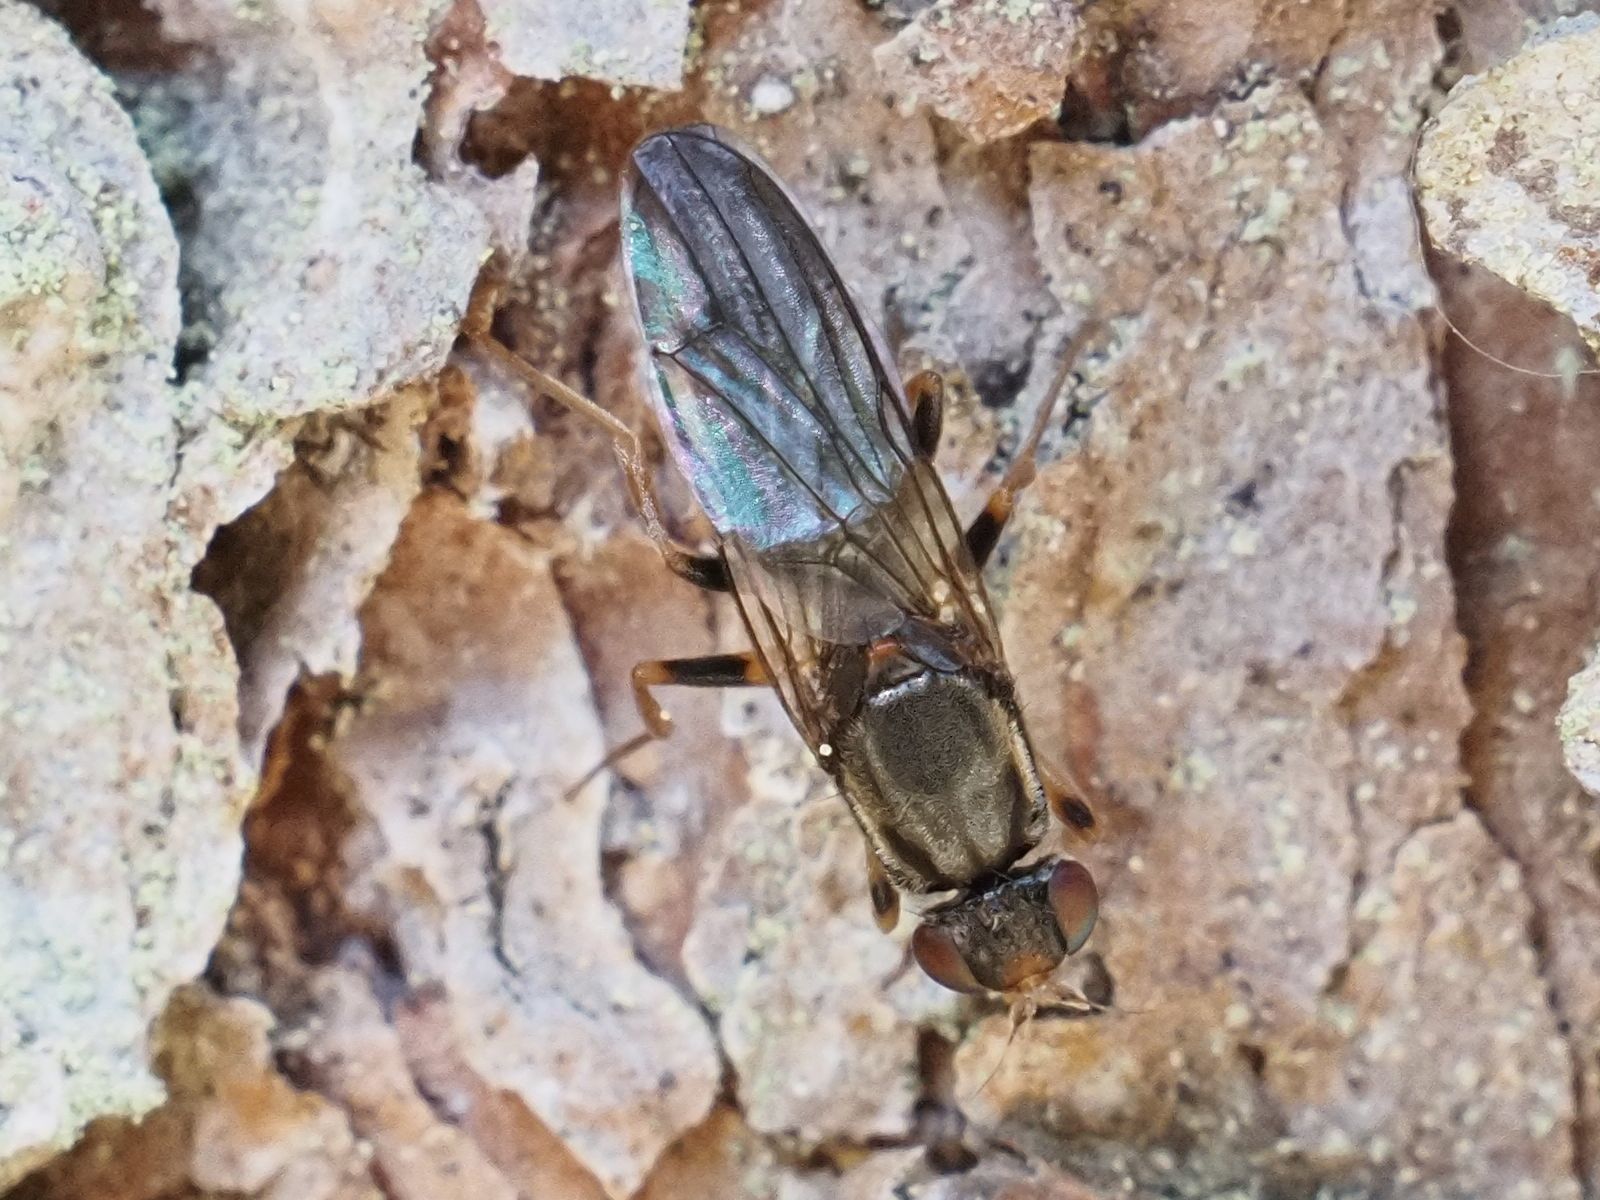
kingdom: Animalia
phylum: Arthropoda
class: Insecta
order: Diptera
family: Psilidae
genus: Chyliza
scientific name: Chyliza annulipes
